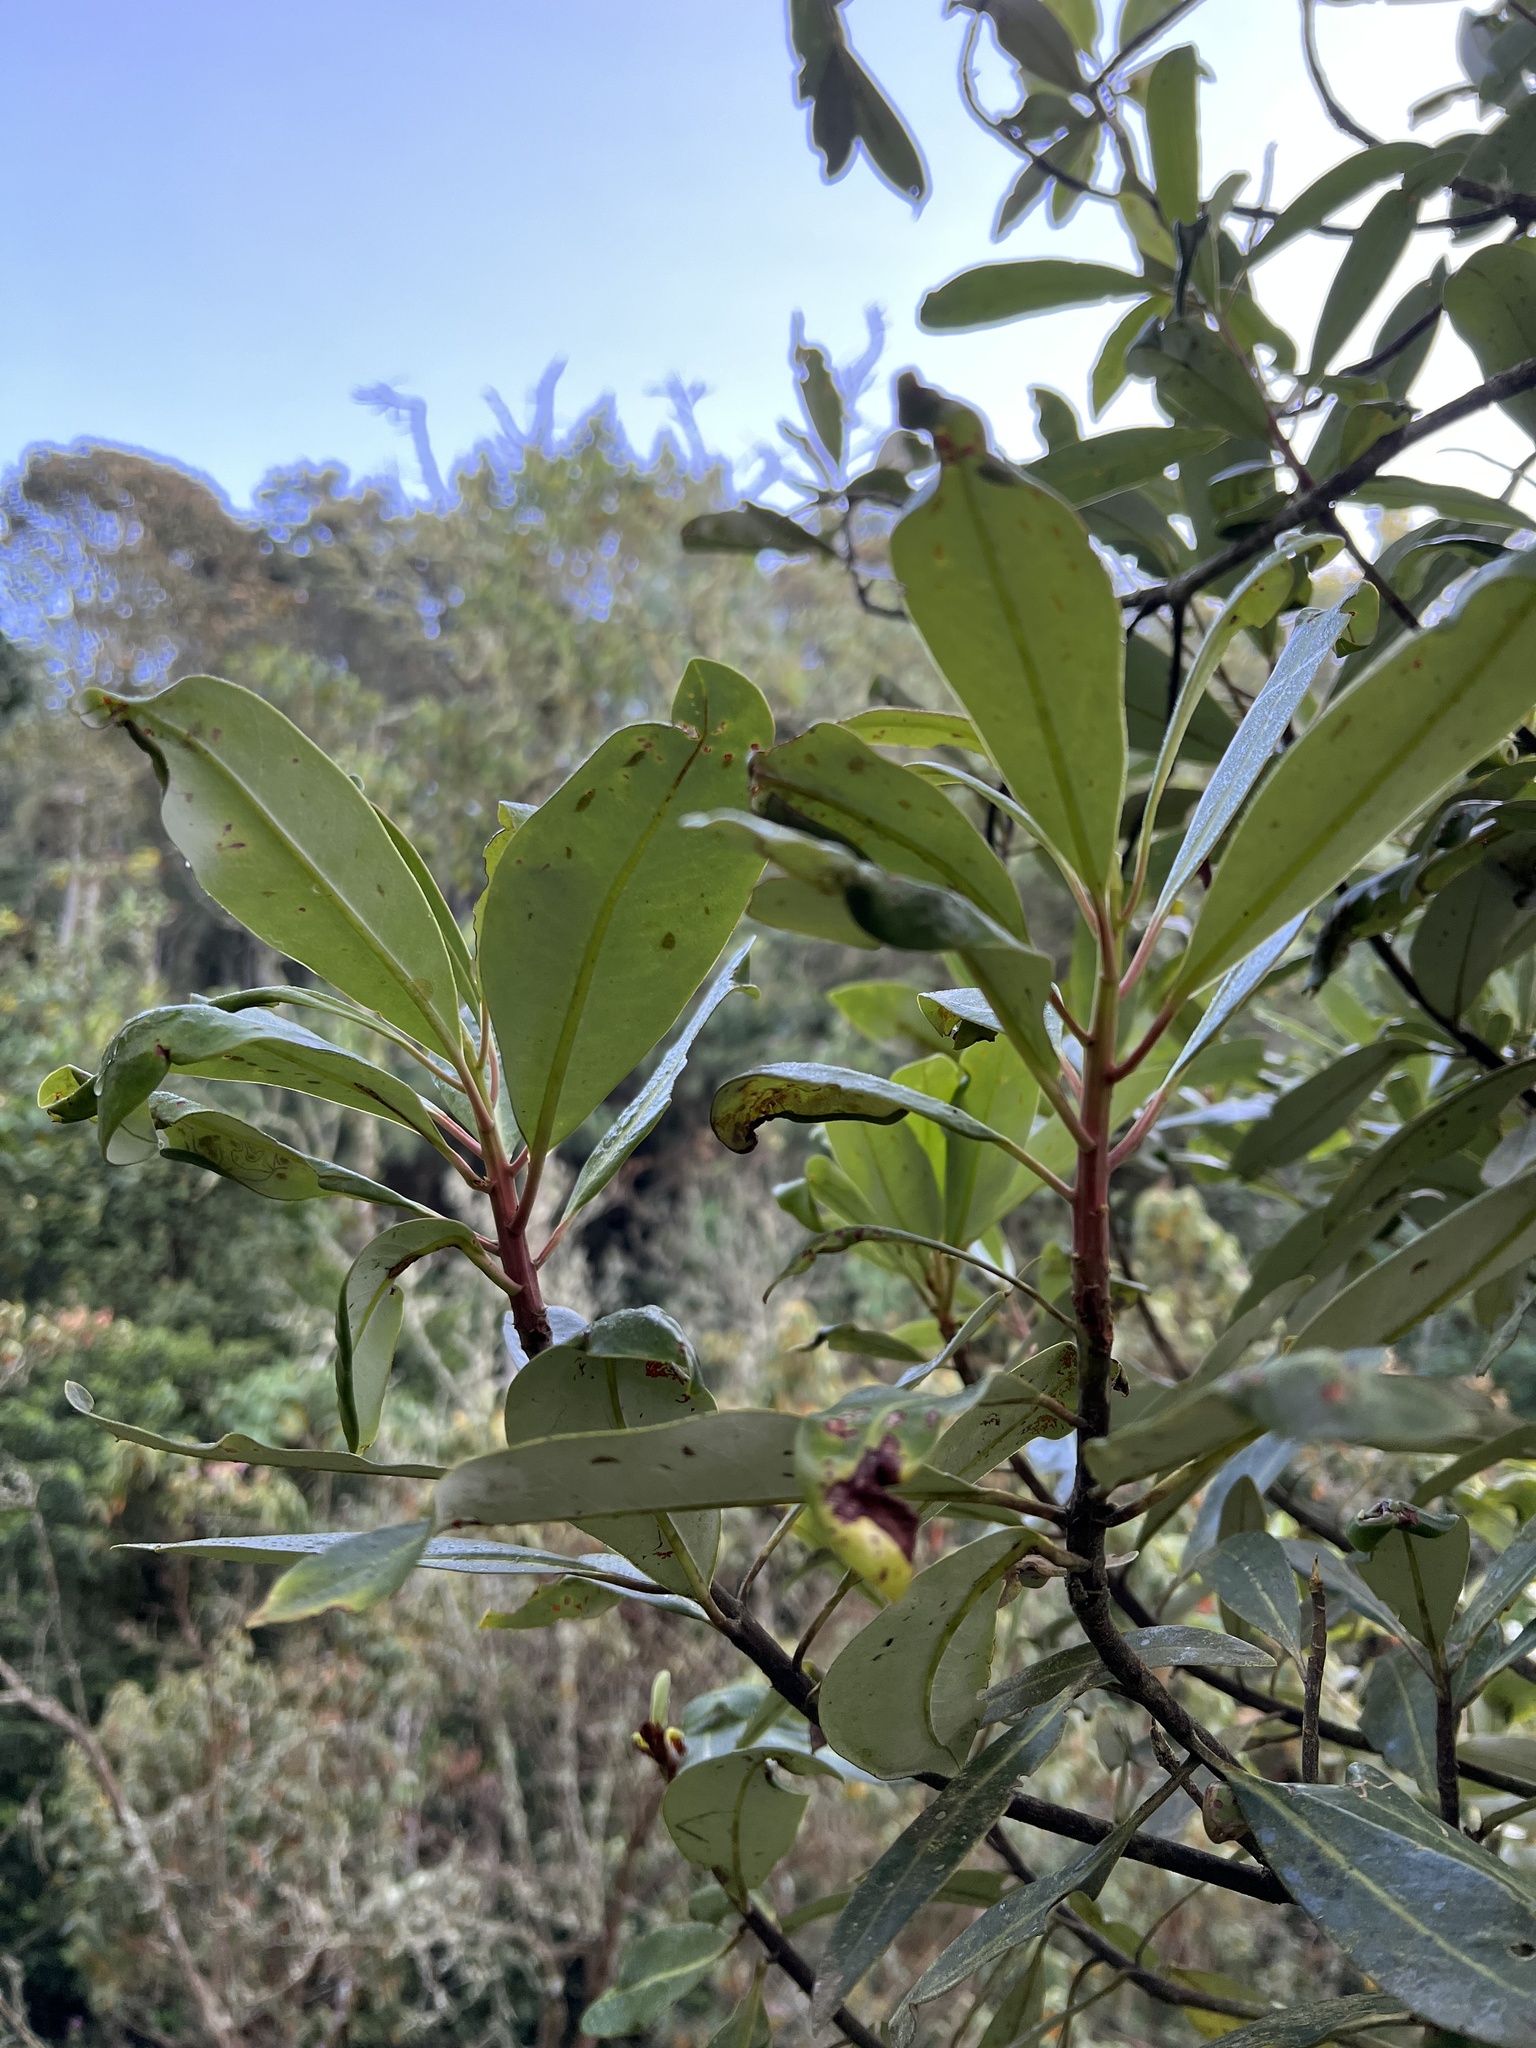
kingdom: Plantae
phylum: Tracheophyta
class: Magnoliopsida
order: Canellales
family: Winteraceae
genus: Drimys
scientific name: Drimys granadensis
